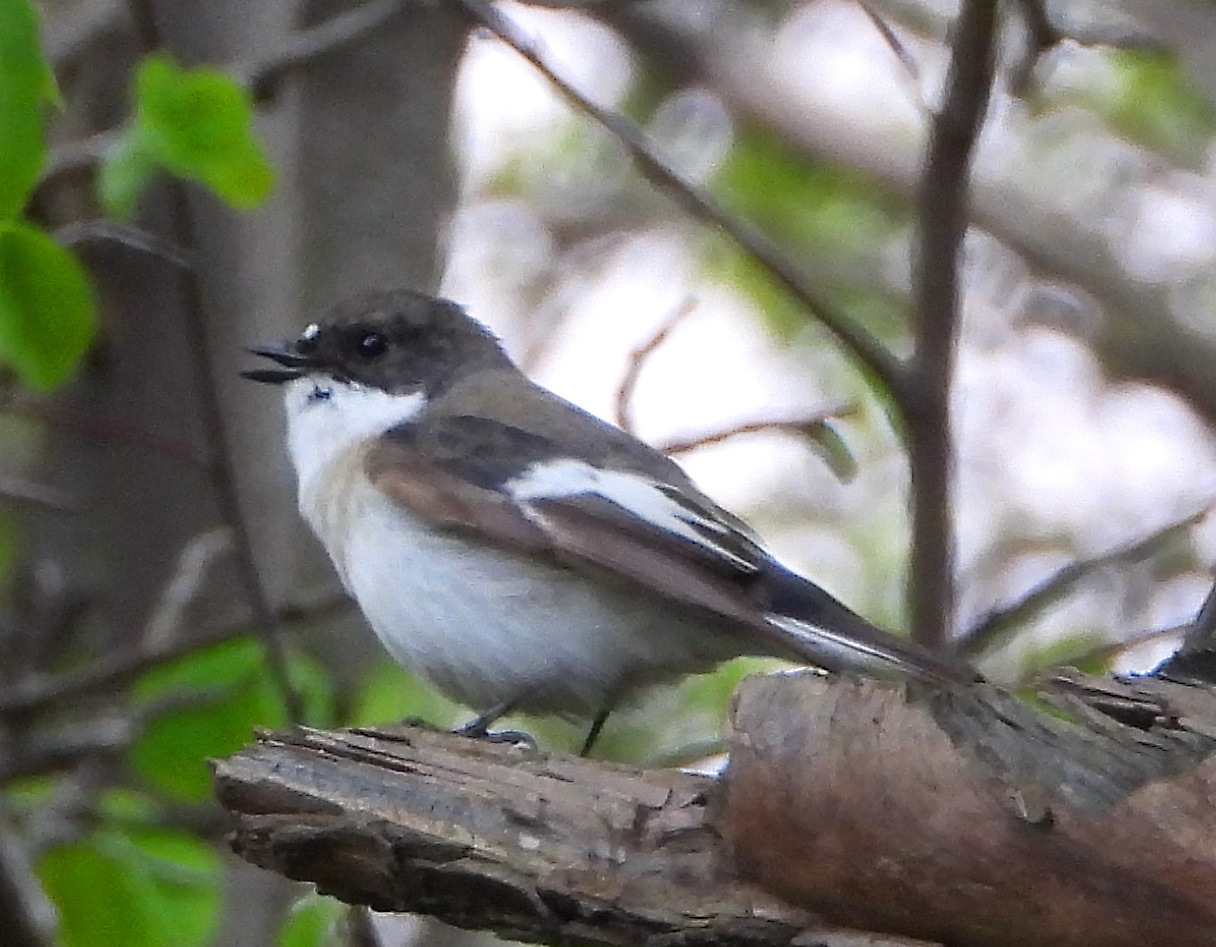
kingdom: Animalia
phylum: Chordata
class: Aves
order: Passeriformes
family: Muscicapidae
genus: Ficedula
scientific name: Ficedula hypoleuca
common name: European pied flycatcher
